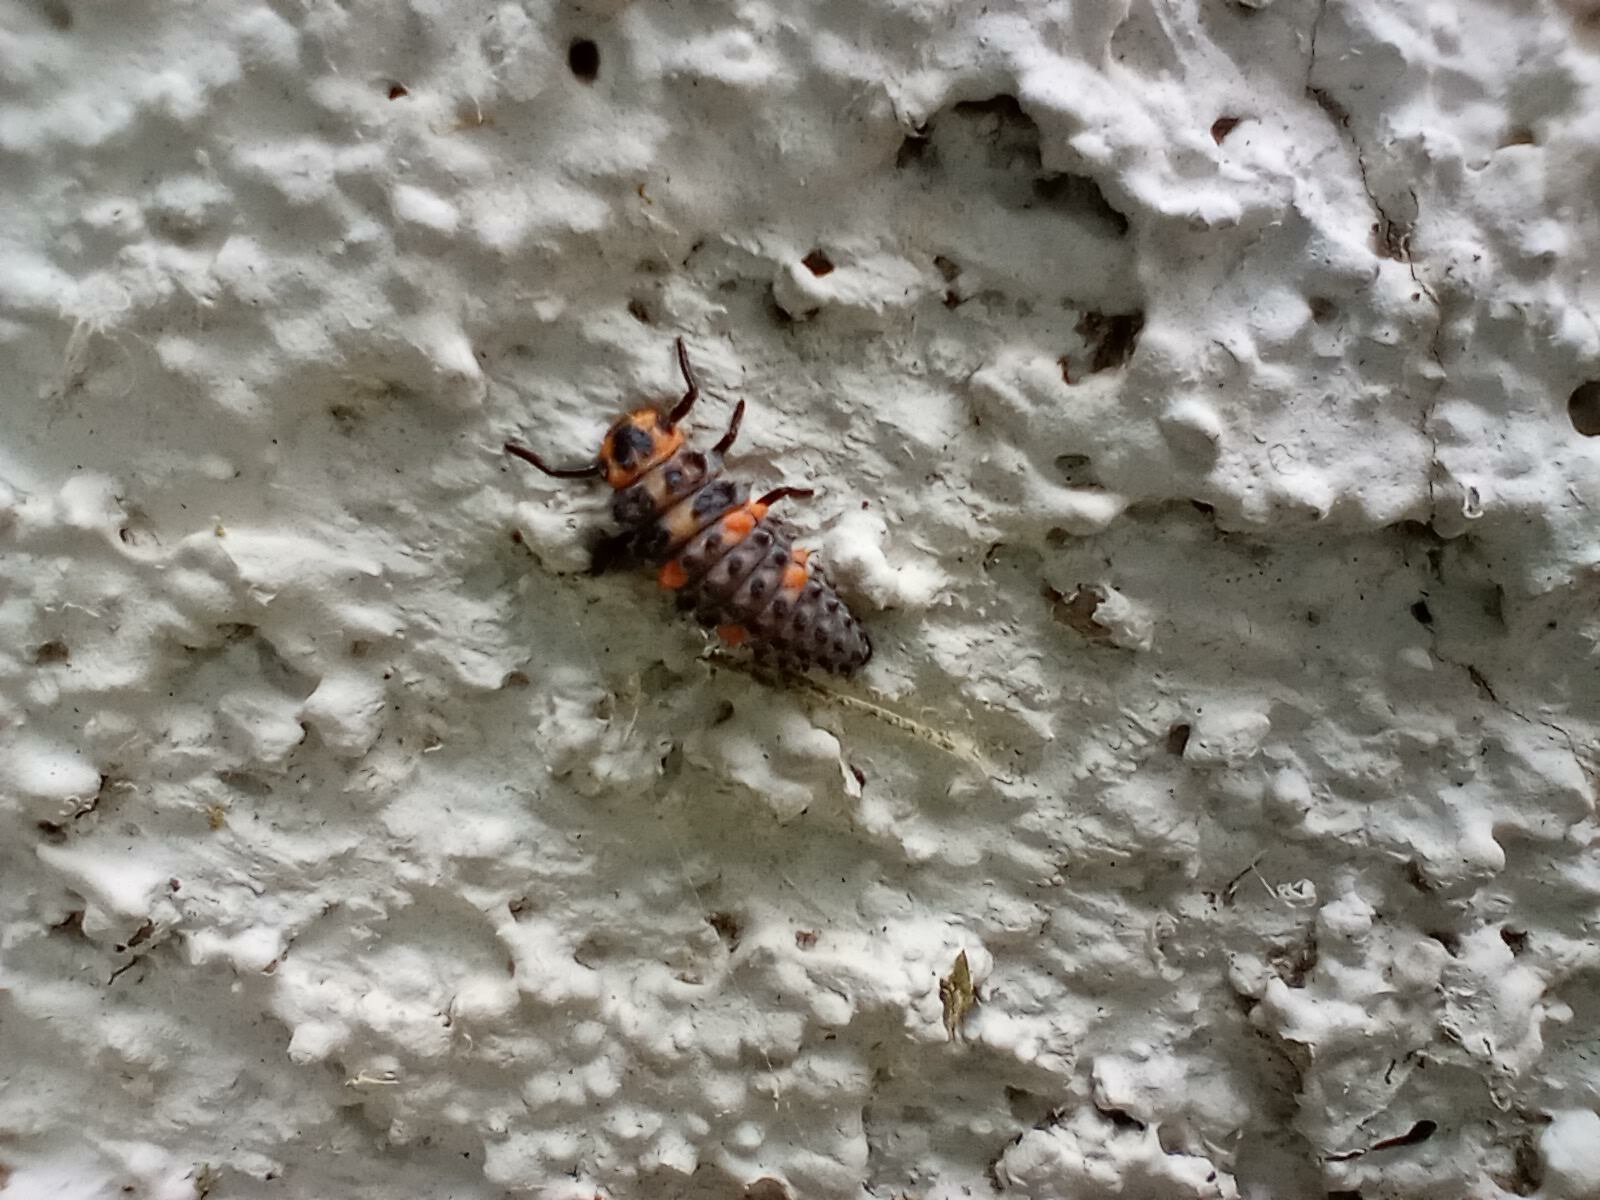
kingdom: Animalia
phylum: Arthropoda
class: Insecta
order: Coleoptera
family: Coccinellidae
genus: Coccinella
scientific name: Coccinella septempunctata
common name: Sevenspotted lady beetle
